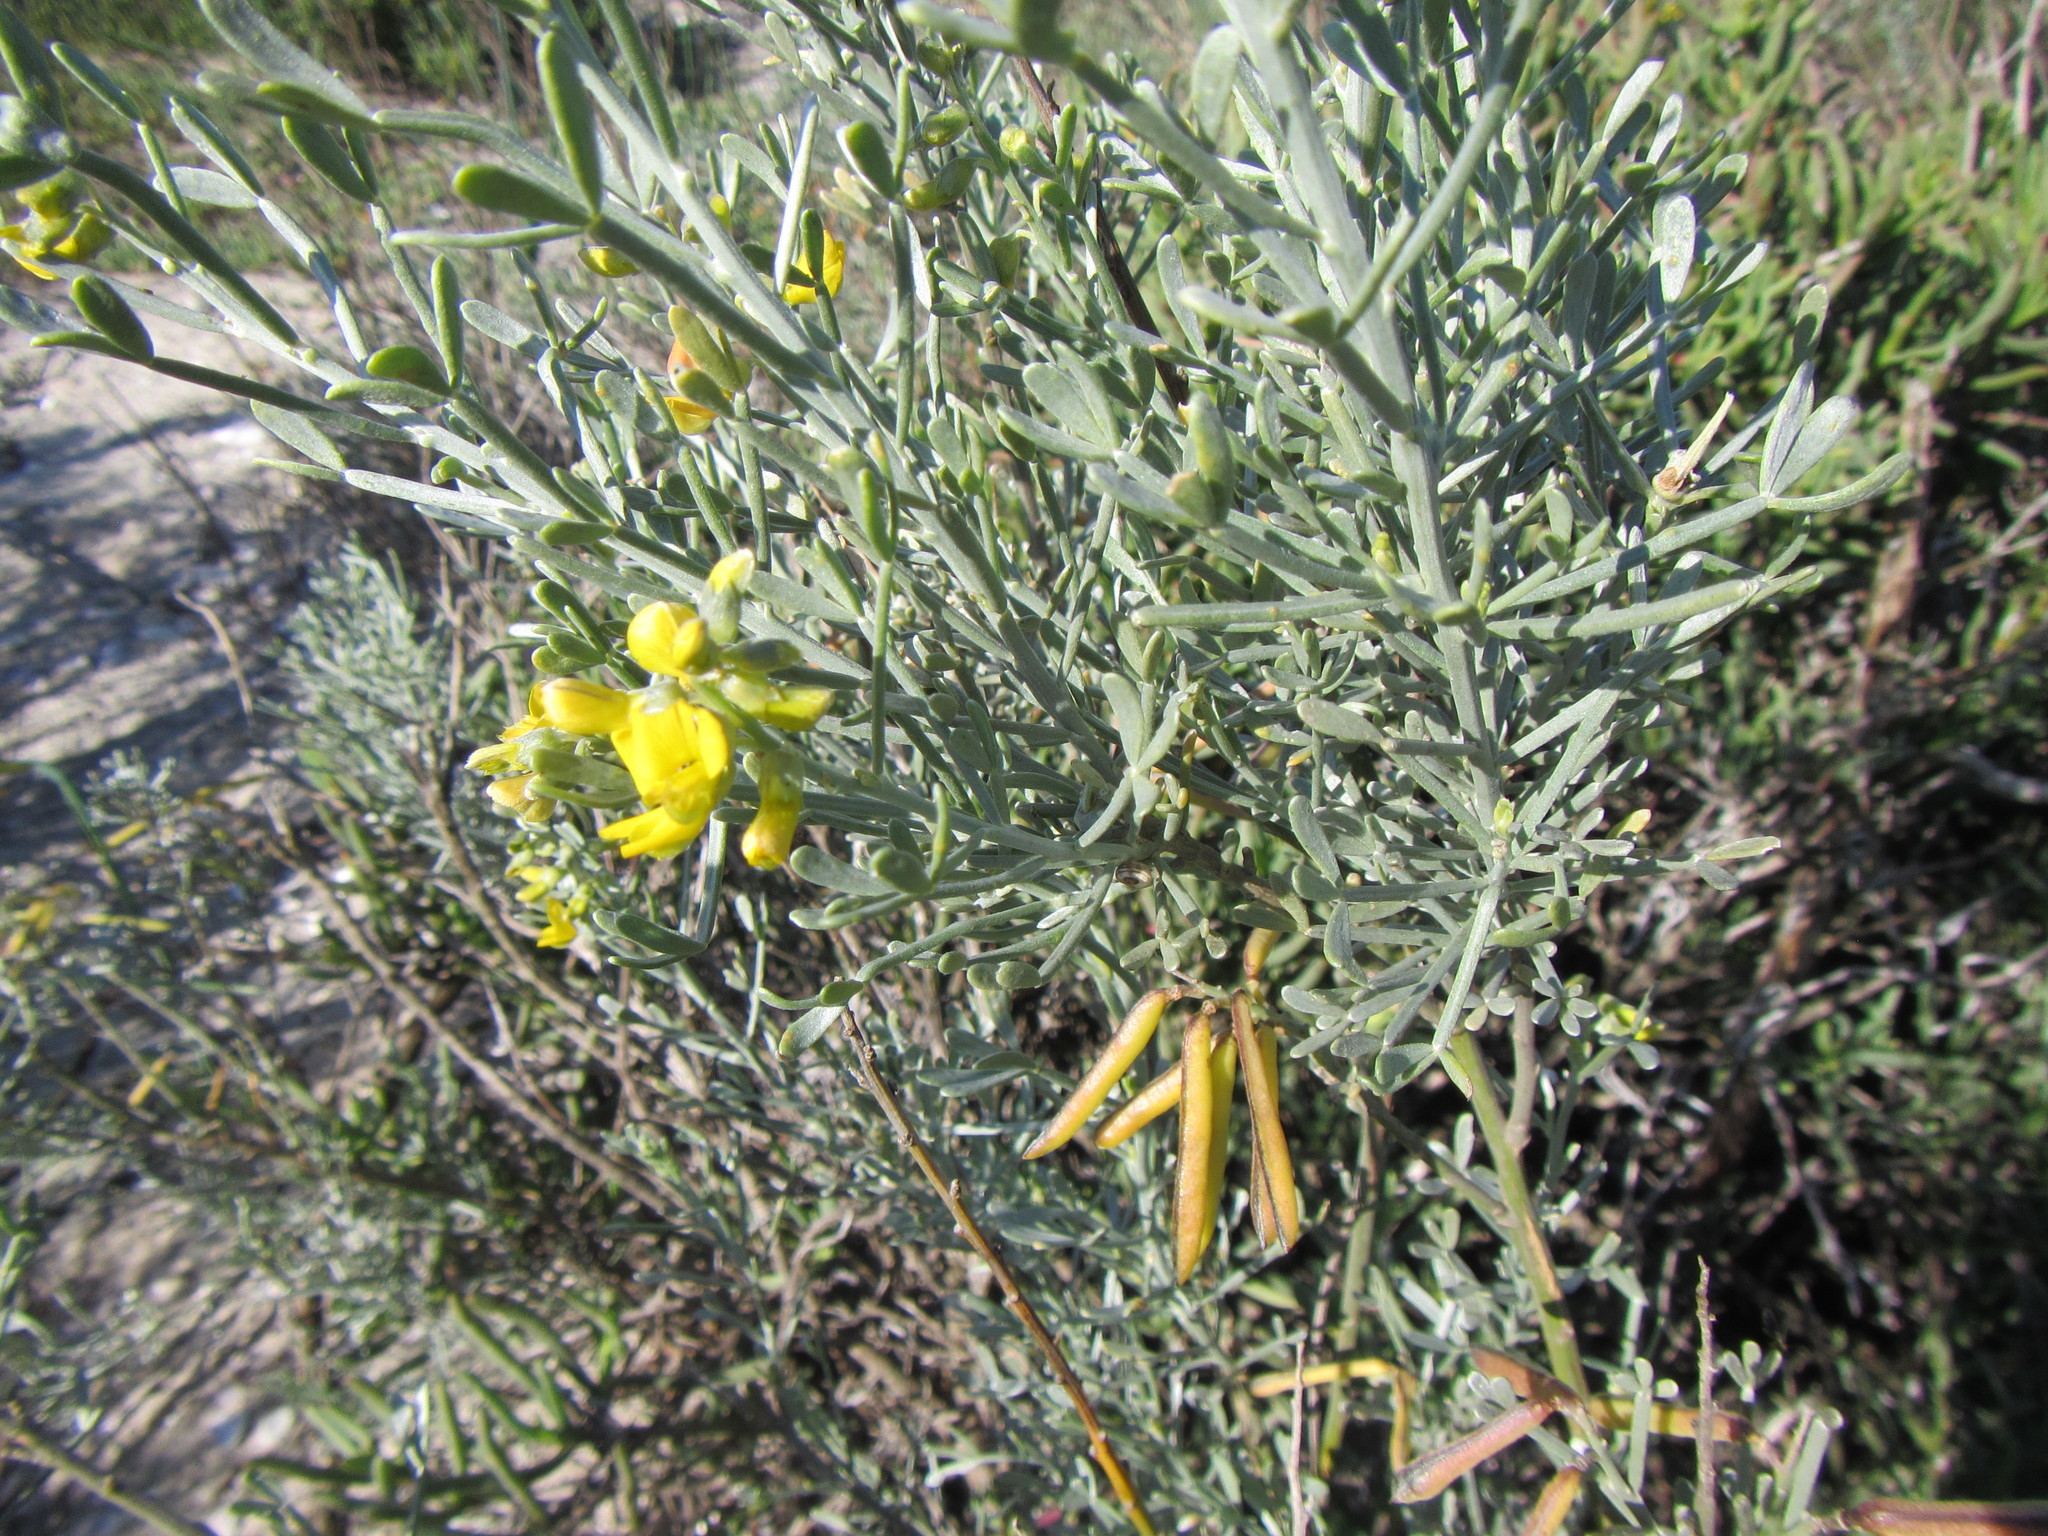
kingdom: Plantae
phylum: Tracheophyta
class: Magnoliopsida
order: Fabales
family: Fabaceae
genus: Calobota
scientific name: Calobota angustifolia
